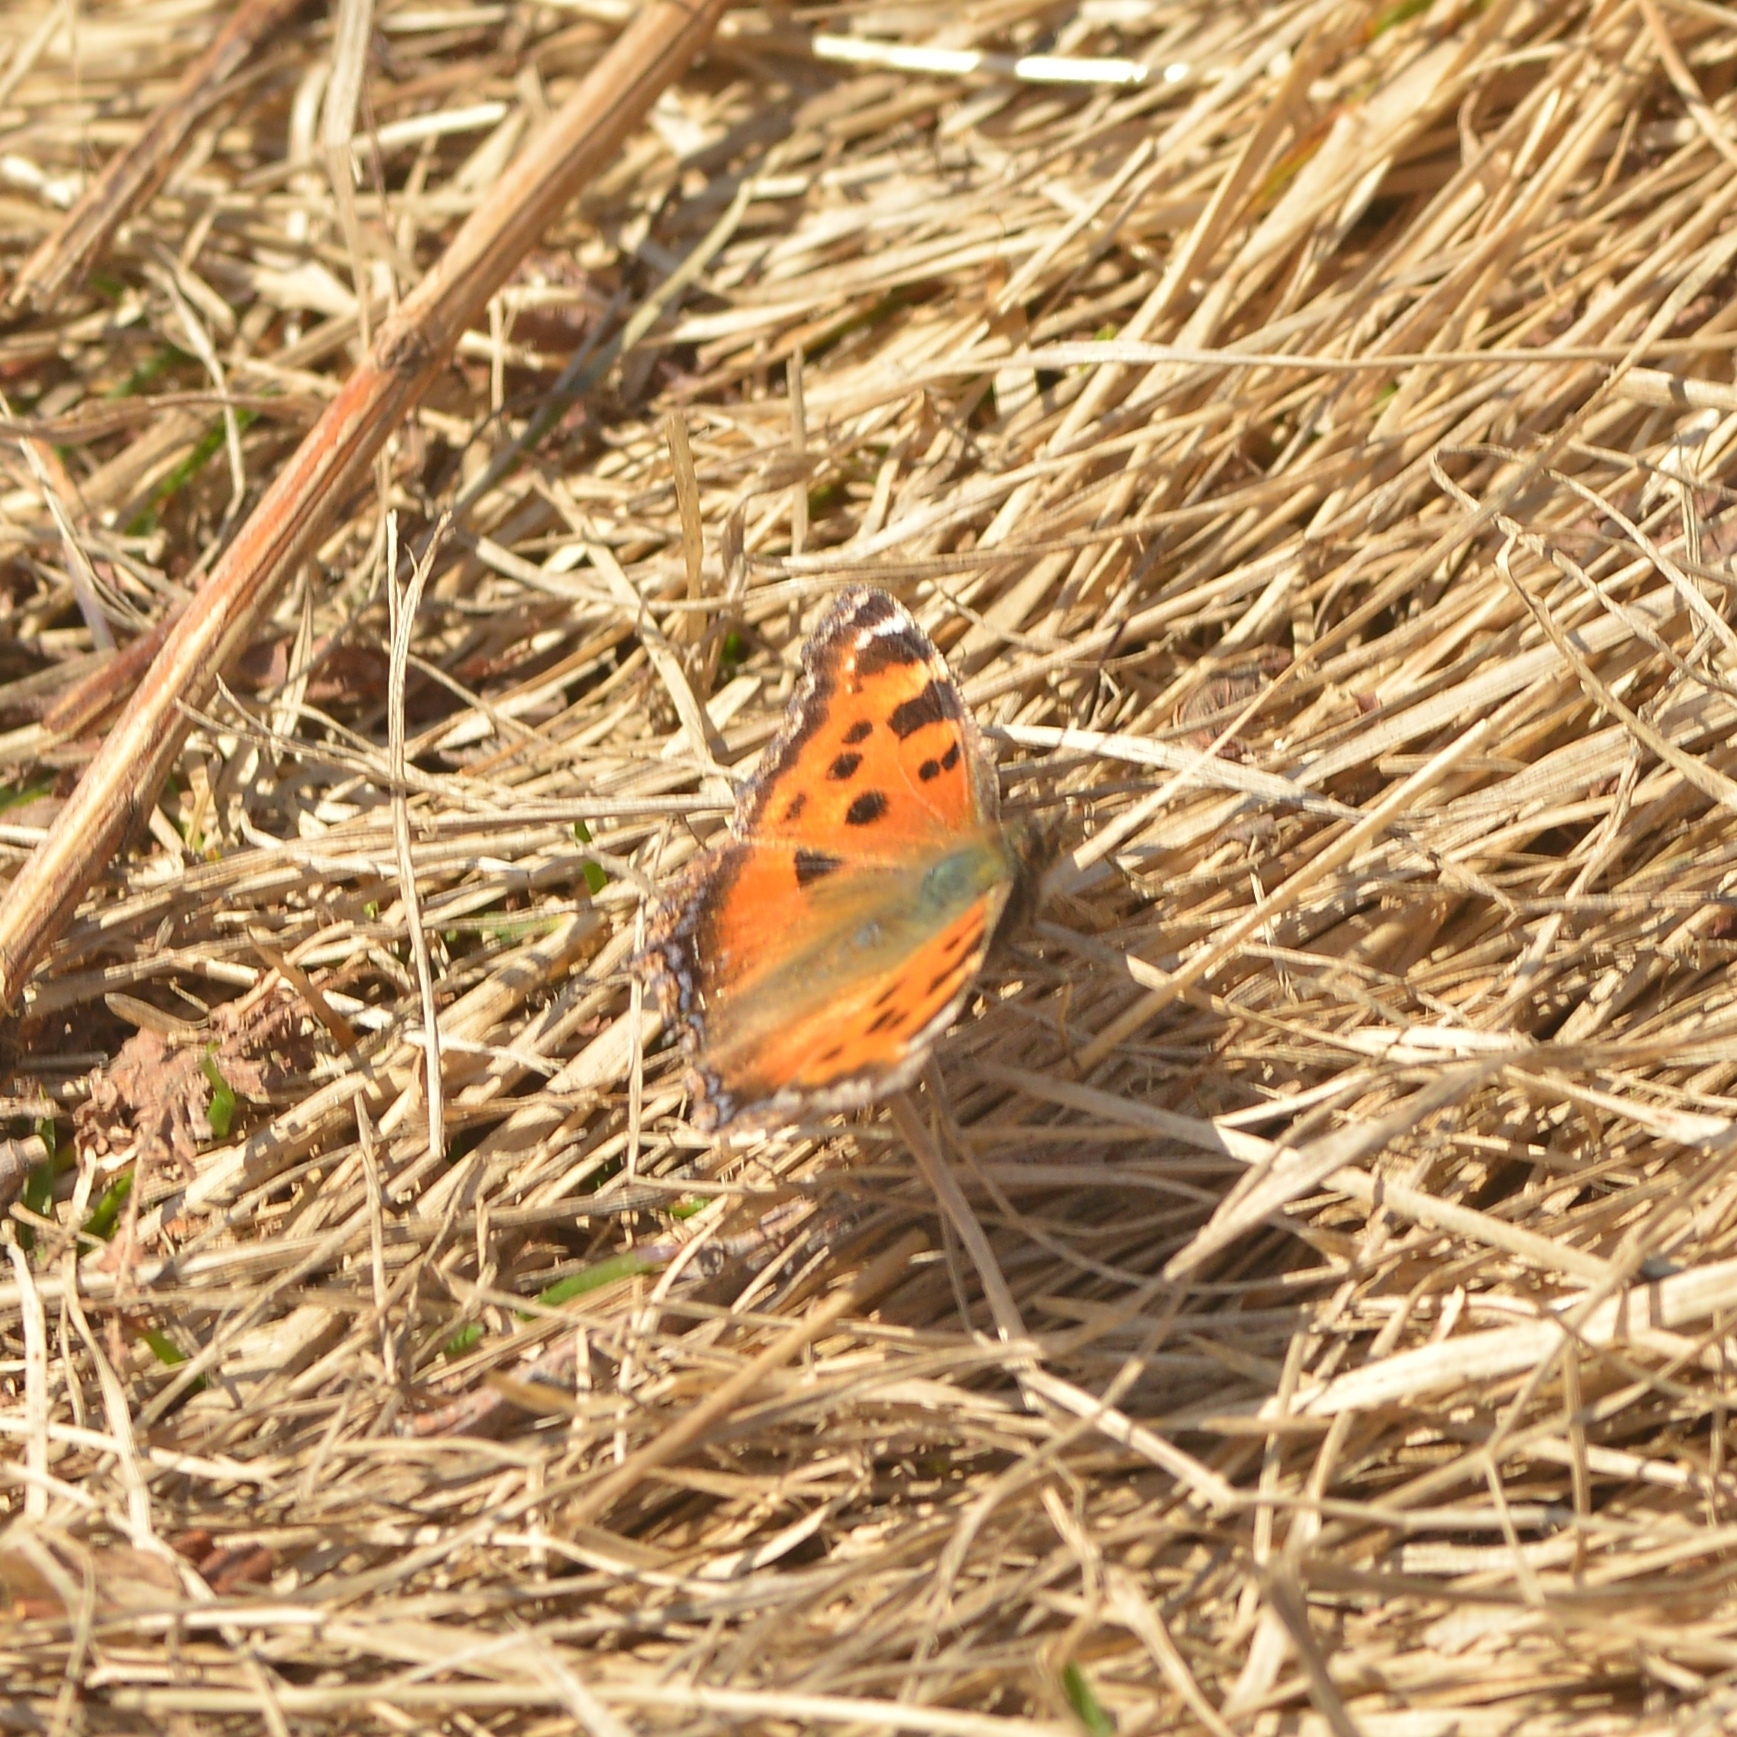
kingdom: Animalia
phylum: Arthropoda
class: Insecta
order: Lepidoptera
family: Nymphalidae
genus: Nymphalis
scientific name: Nymphalis xanthomelas
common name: Scarce tortoiseshell
